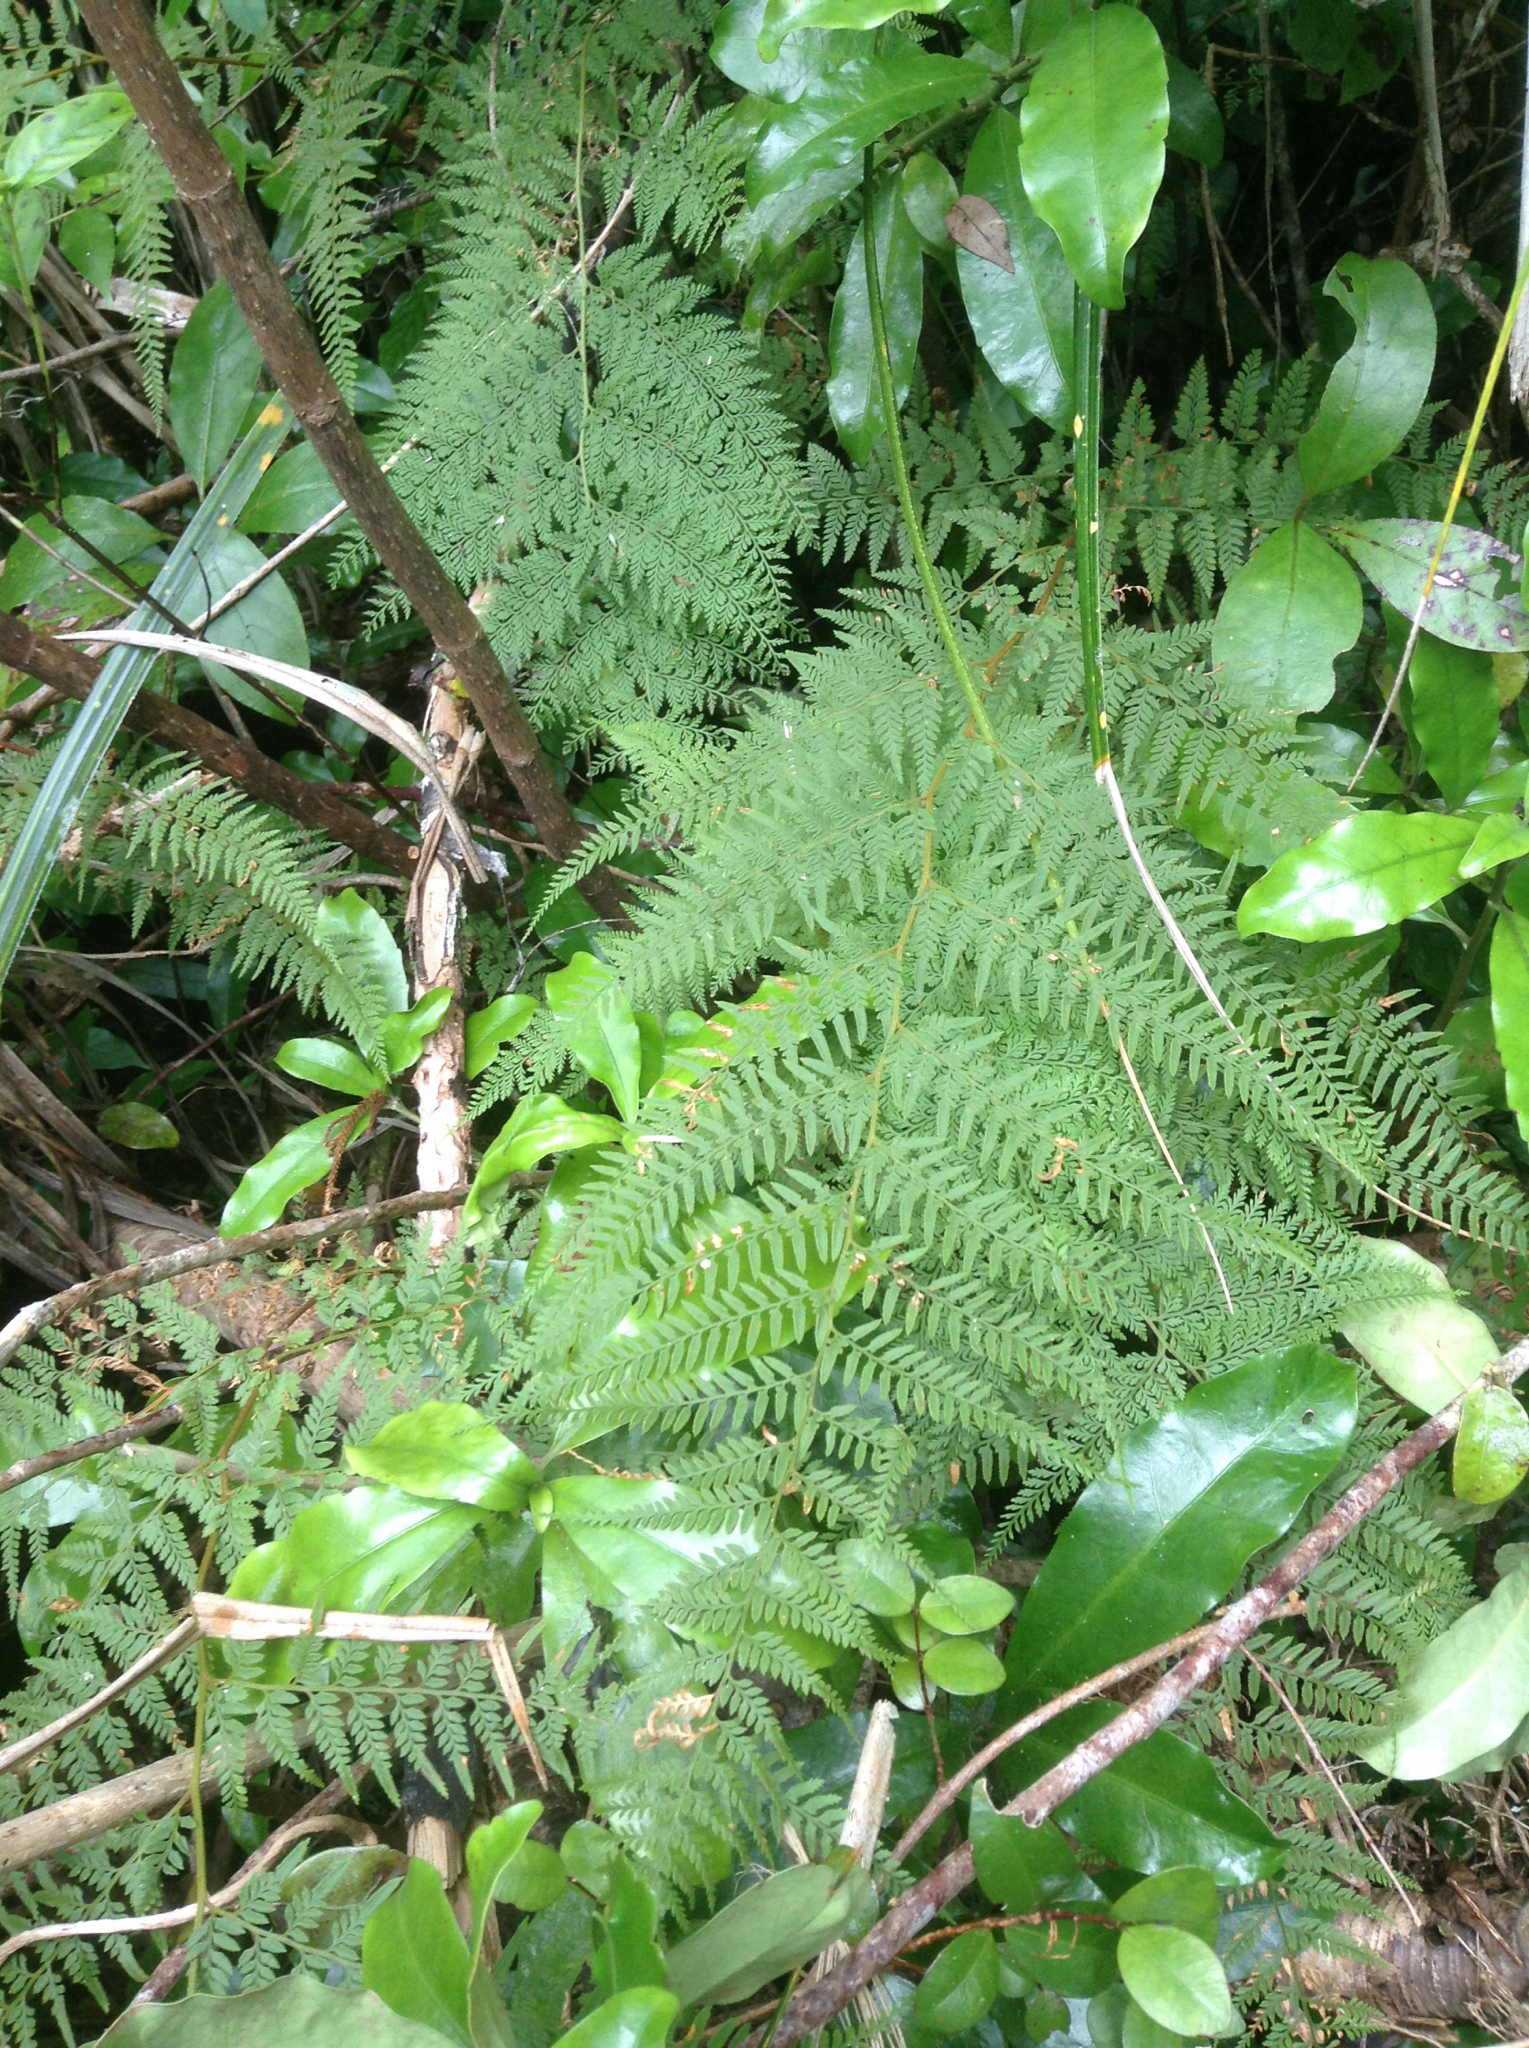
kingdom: Plantae
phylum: Tracheophyta
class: Polypodiopsida
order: Polypodiales
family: Dennstaedtiaceae
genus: Paesia
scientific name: Paesia scaberula
